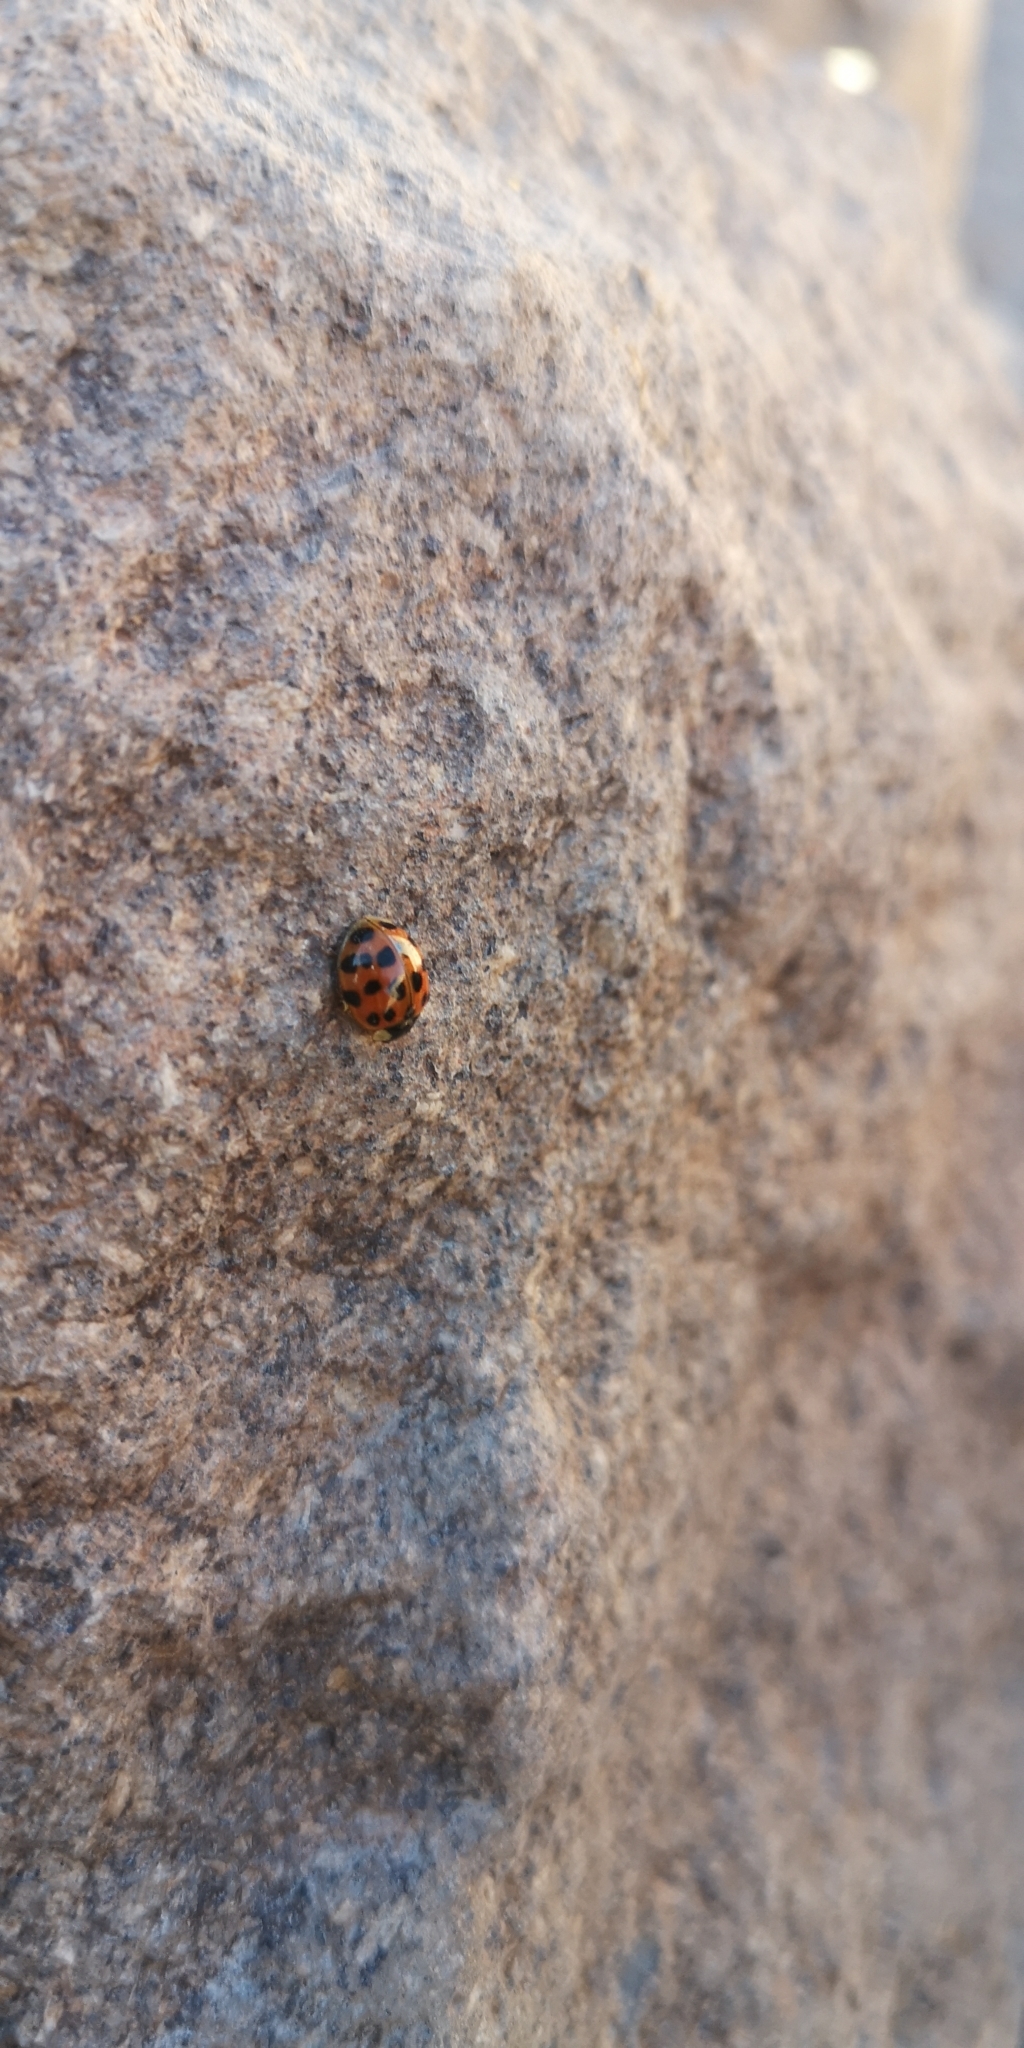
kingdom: Animalia
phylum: Arthropoda
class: Insecta
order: Coleoptera
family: Coccinellidae
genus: Harmonia
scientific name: Harmonia axyridis
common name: Harlequin ladybird
